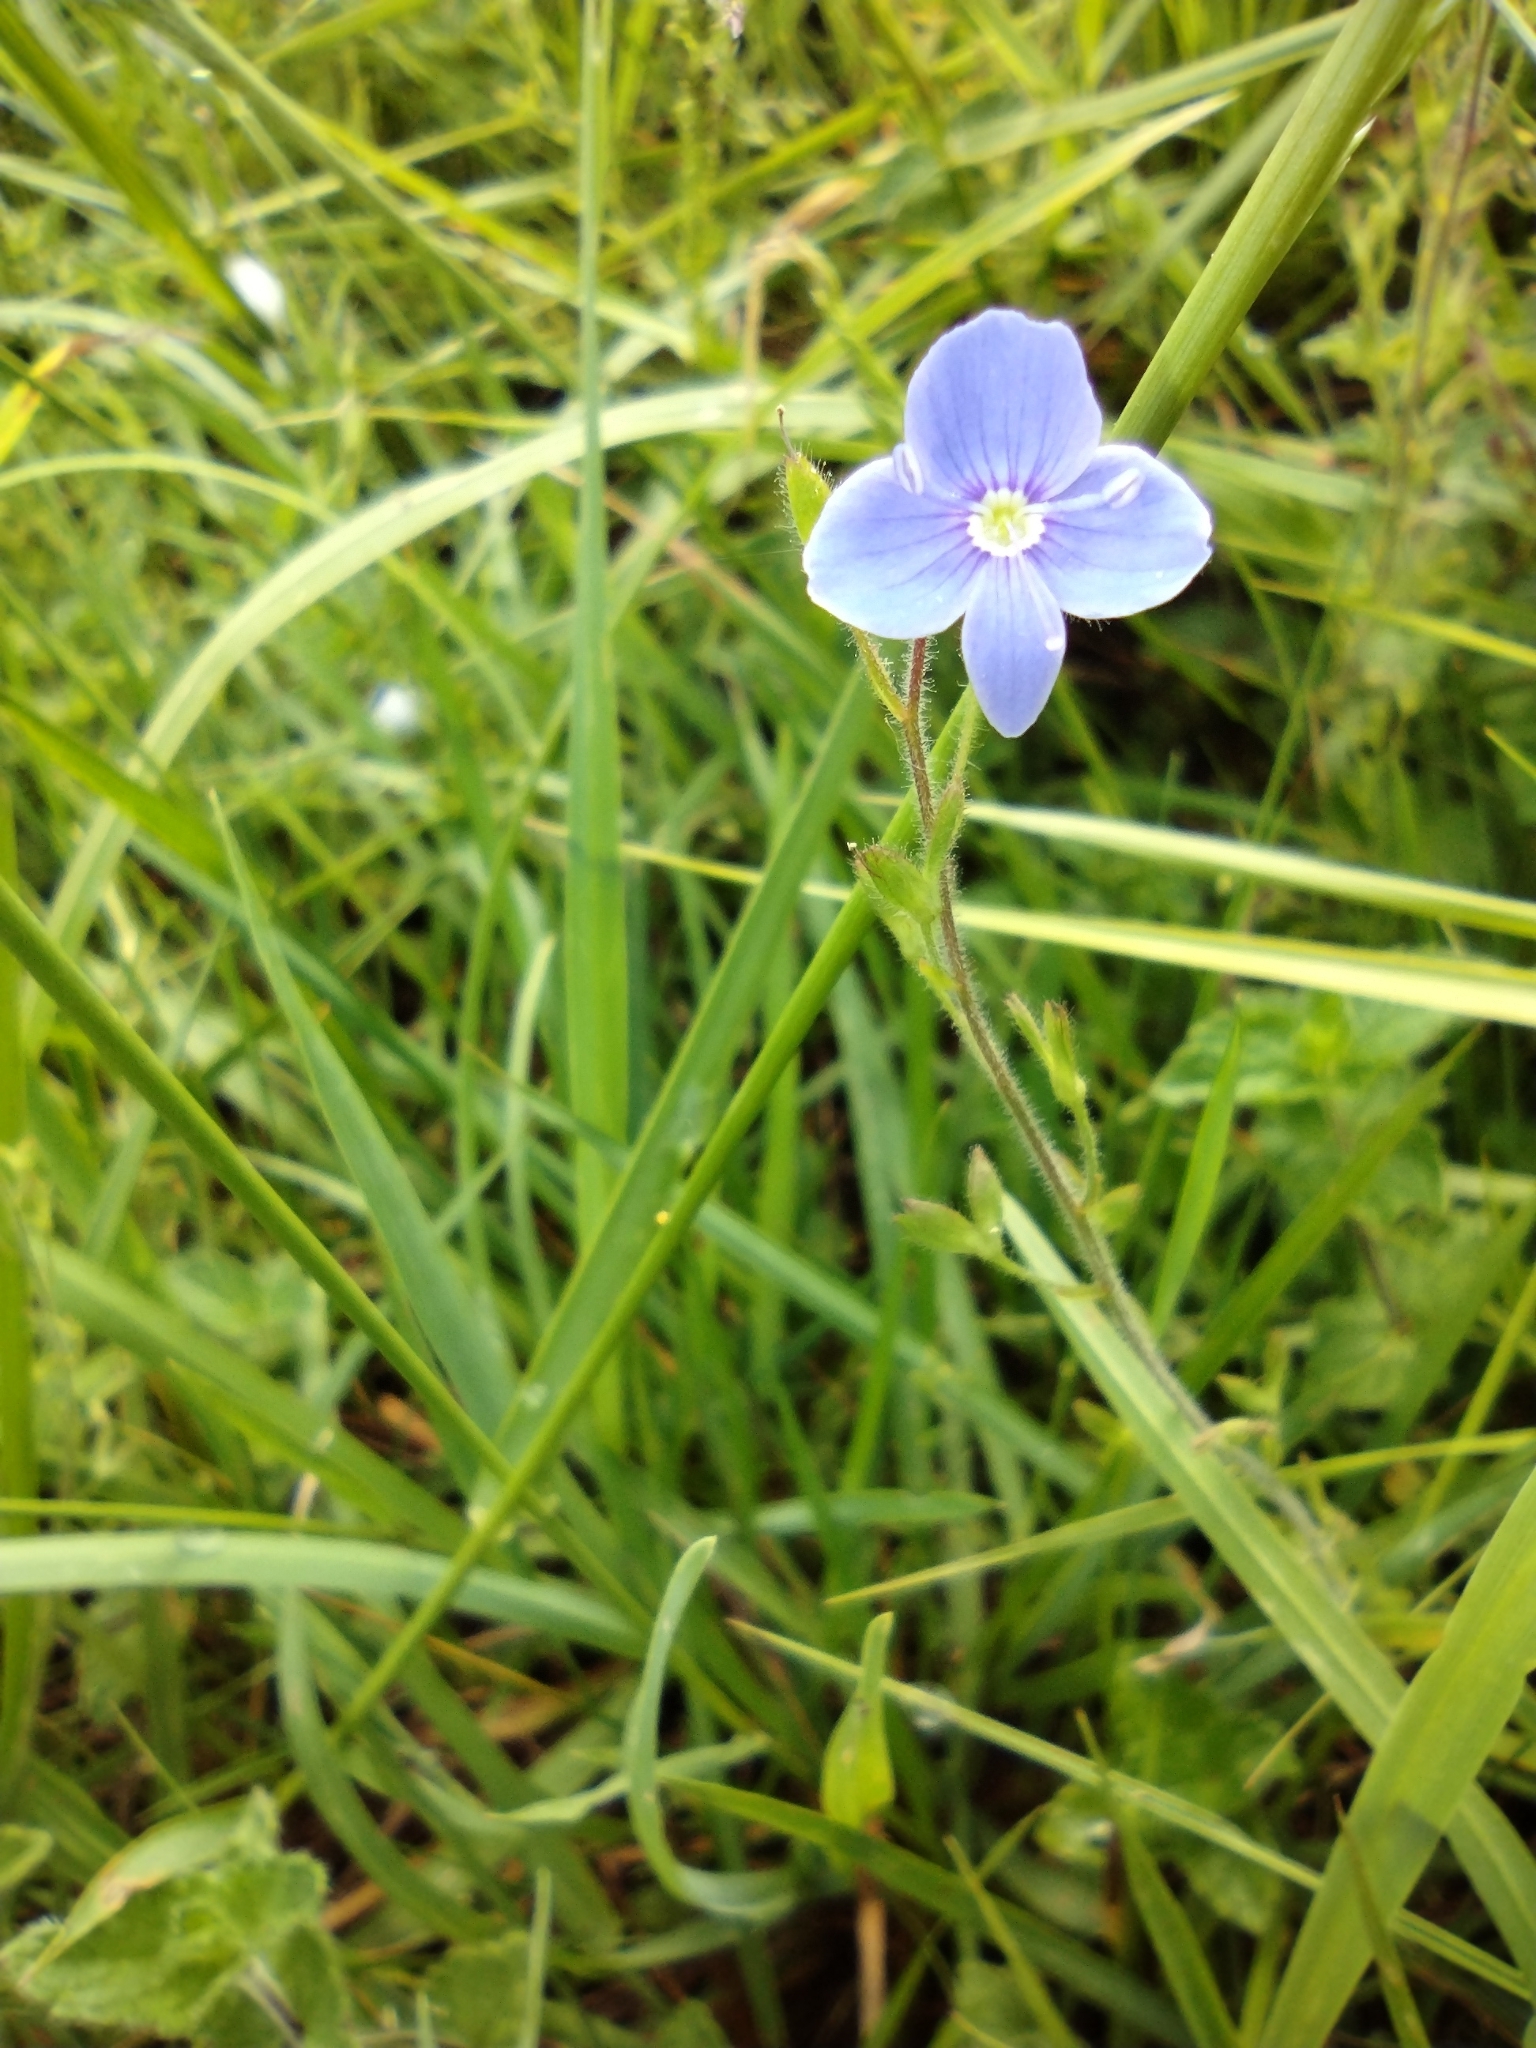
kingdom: Plantae
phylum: Tracheophyta
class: Magnoliopsida
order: Lamiales
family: Plantaginaceae
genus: Veronica
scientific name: Veronica chamaedrys
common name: Germander speedwell
